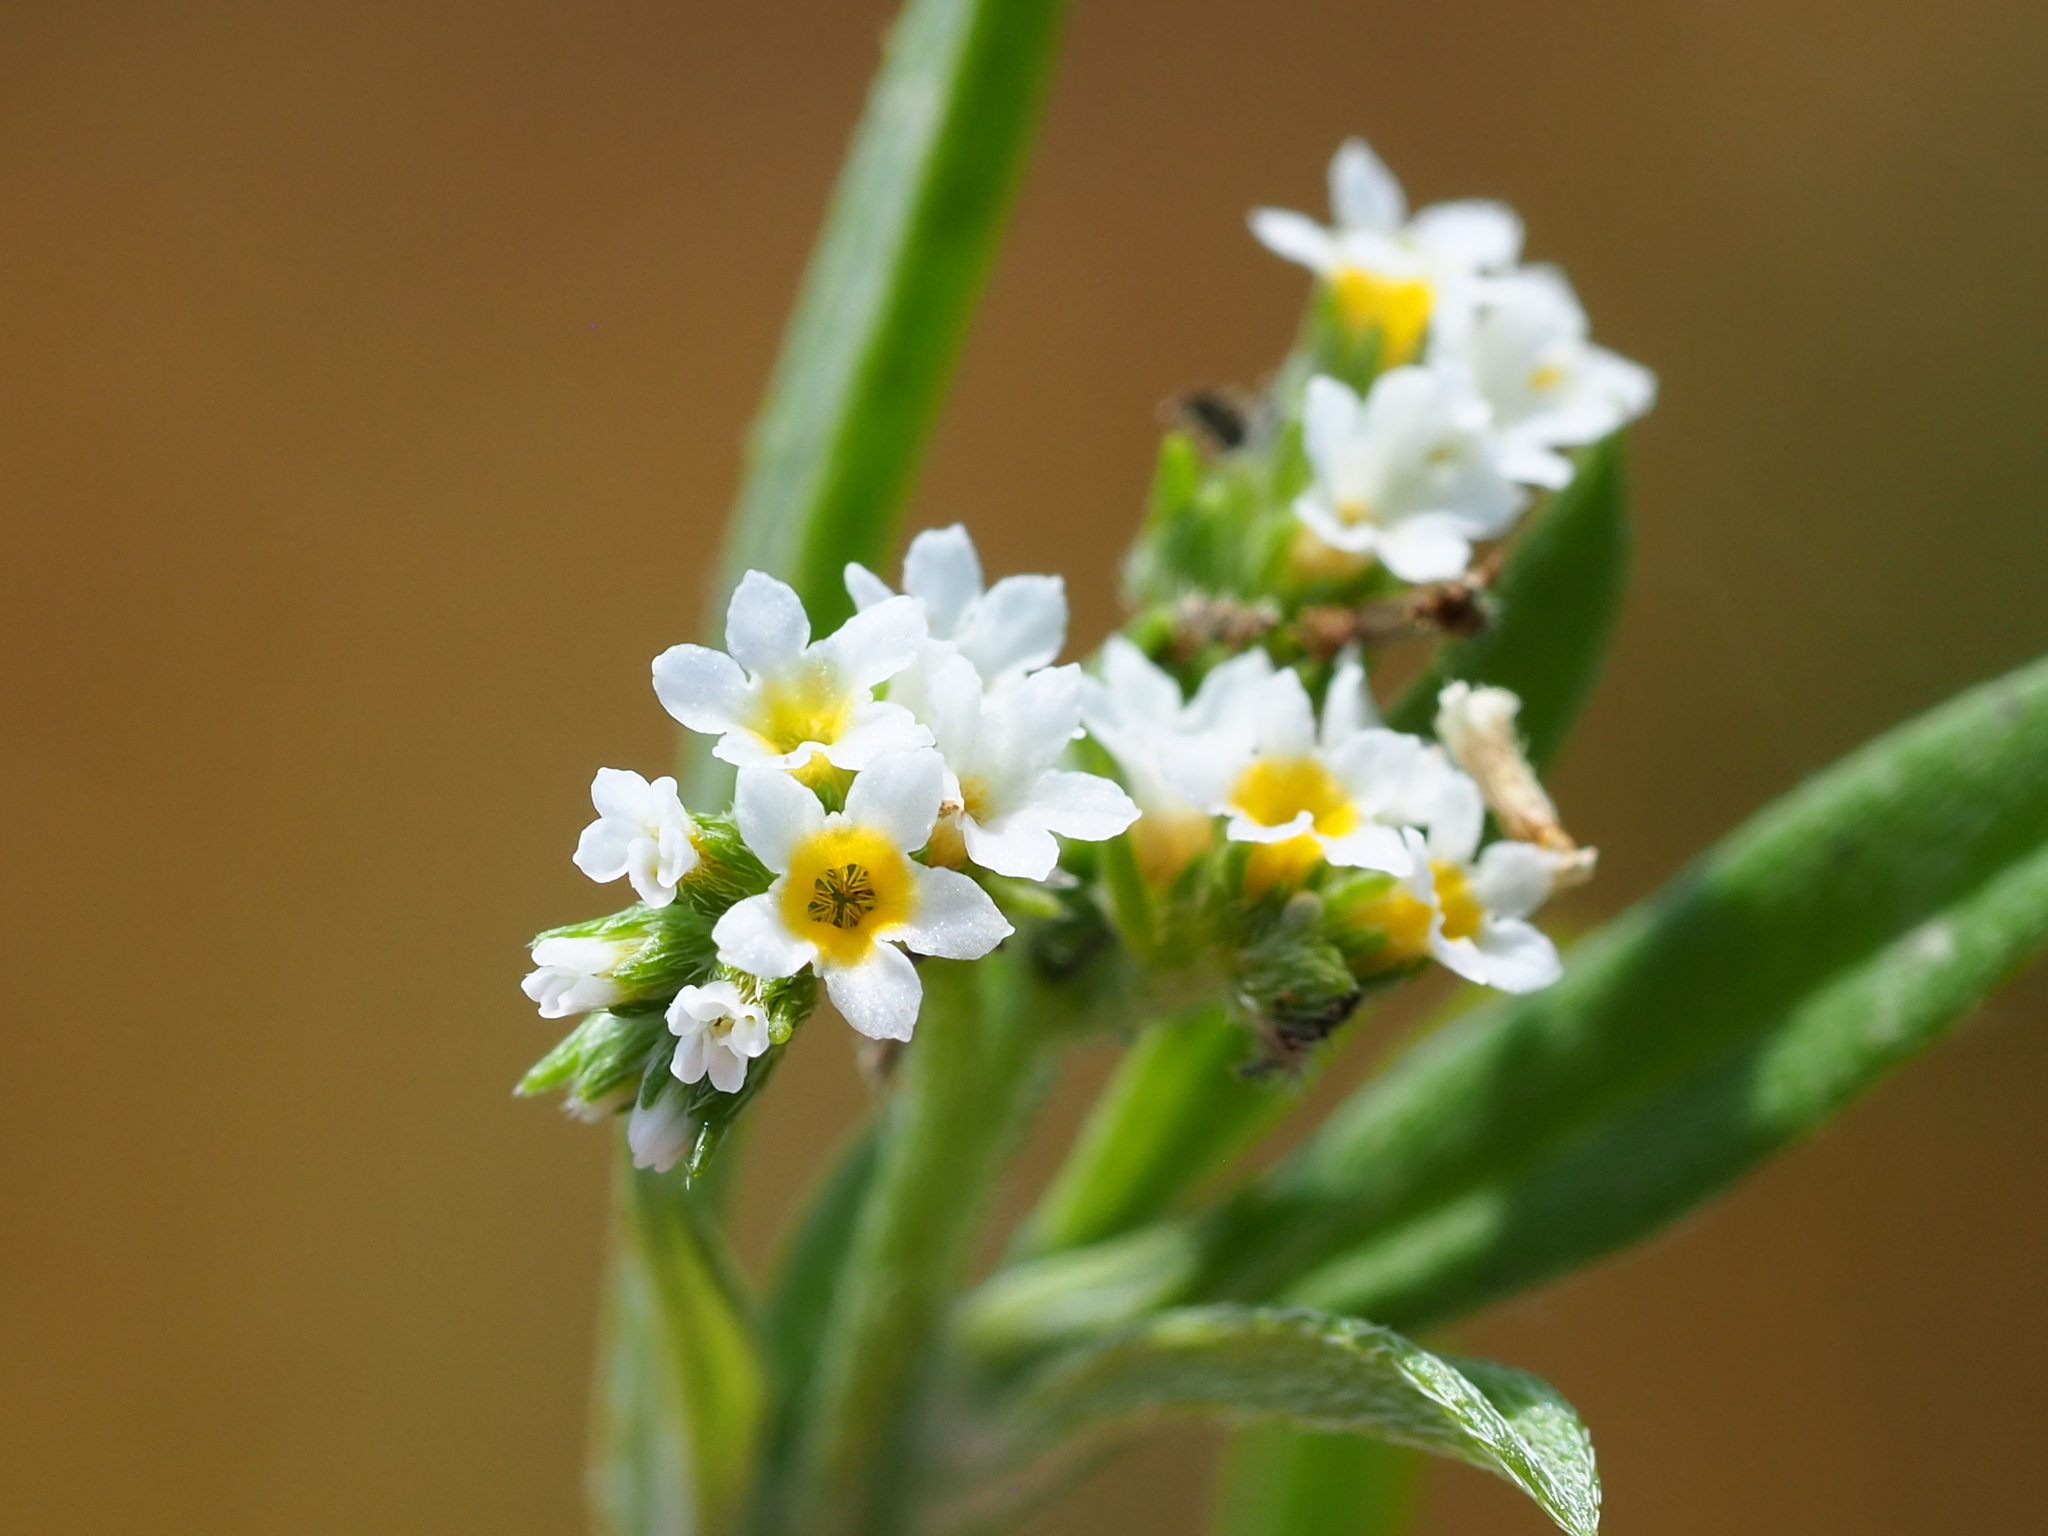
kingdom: Plantae
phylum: Tracheophyta
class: Magnoliopsida
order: Boraginales
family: Heliotropiaceae
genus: Euploca
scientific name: Euploca procumbens
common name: Fourspike heliotrope
